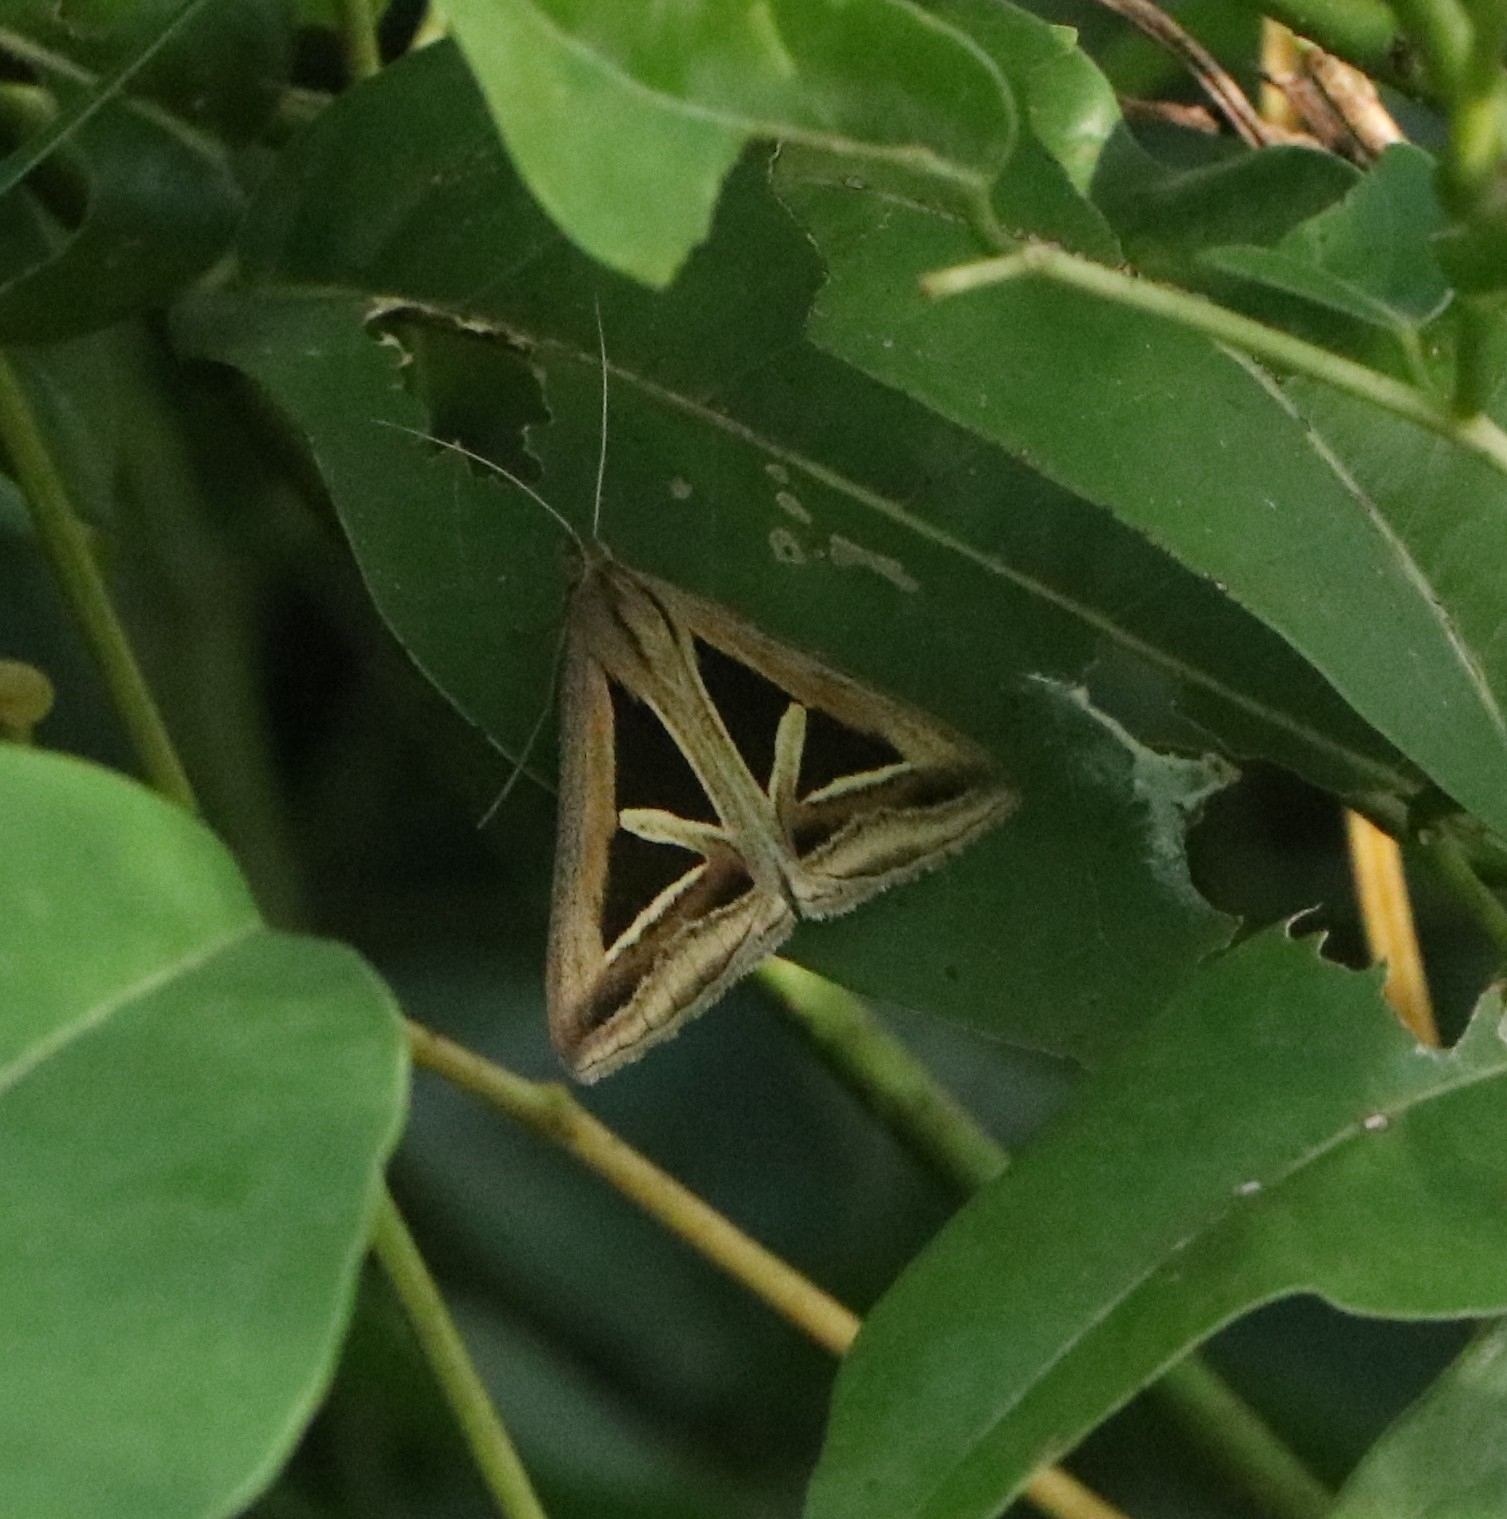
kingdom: Animalia
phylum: Arthropoda
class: Insecta
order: Lepidoptera
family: Erebidae
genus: Trigonodes
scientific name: Trigonodes hyppasia
